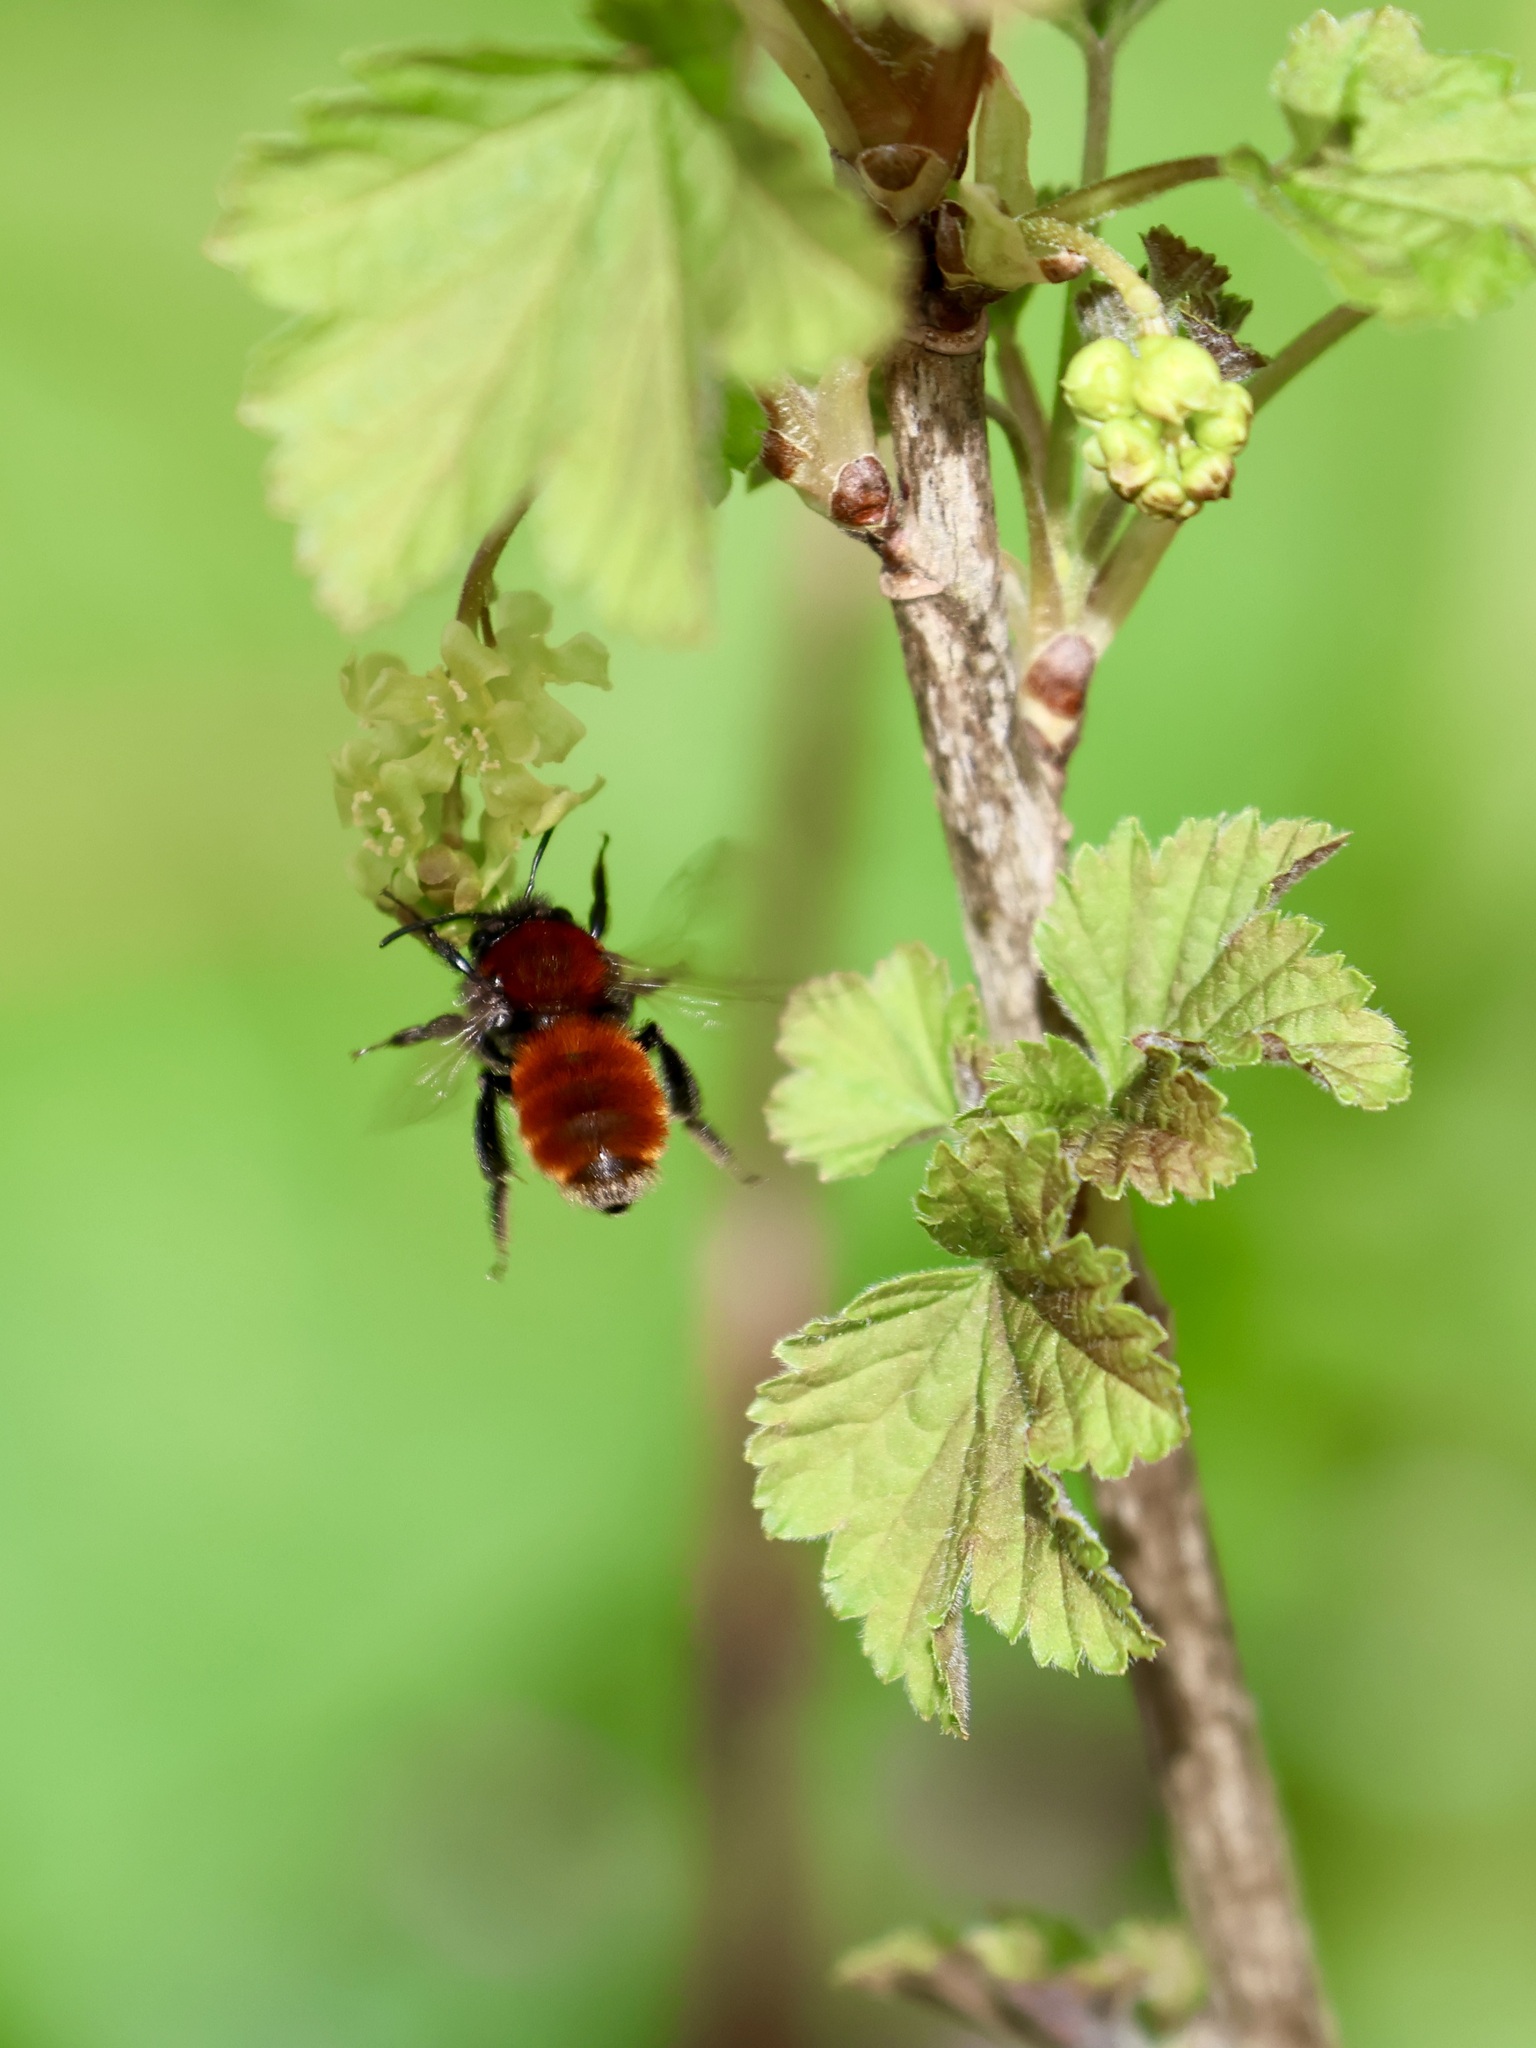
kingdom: Animalia
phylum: Arthropoda
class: Insecta
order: Hymenoptera
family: Andrenidae
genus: Andrena
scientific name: Andrena fulva
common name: Tawny mining bee
